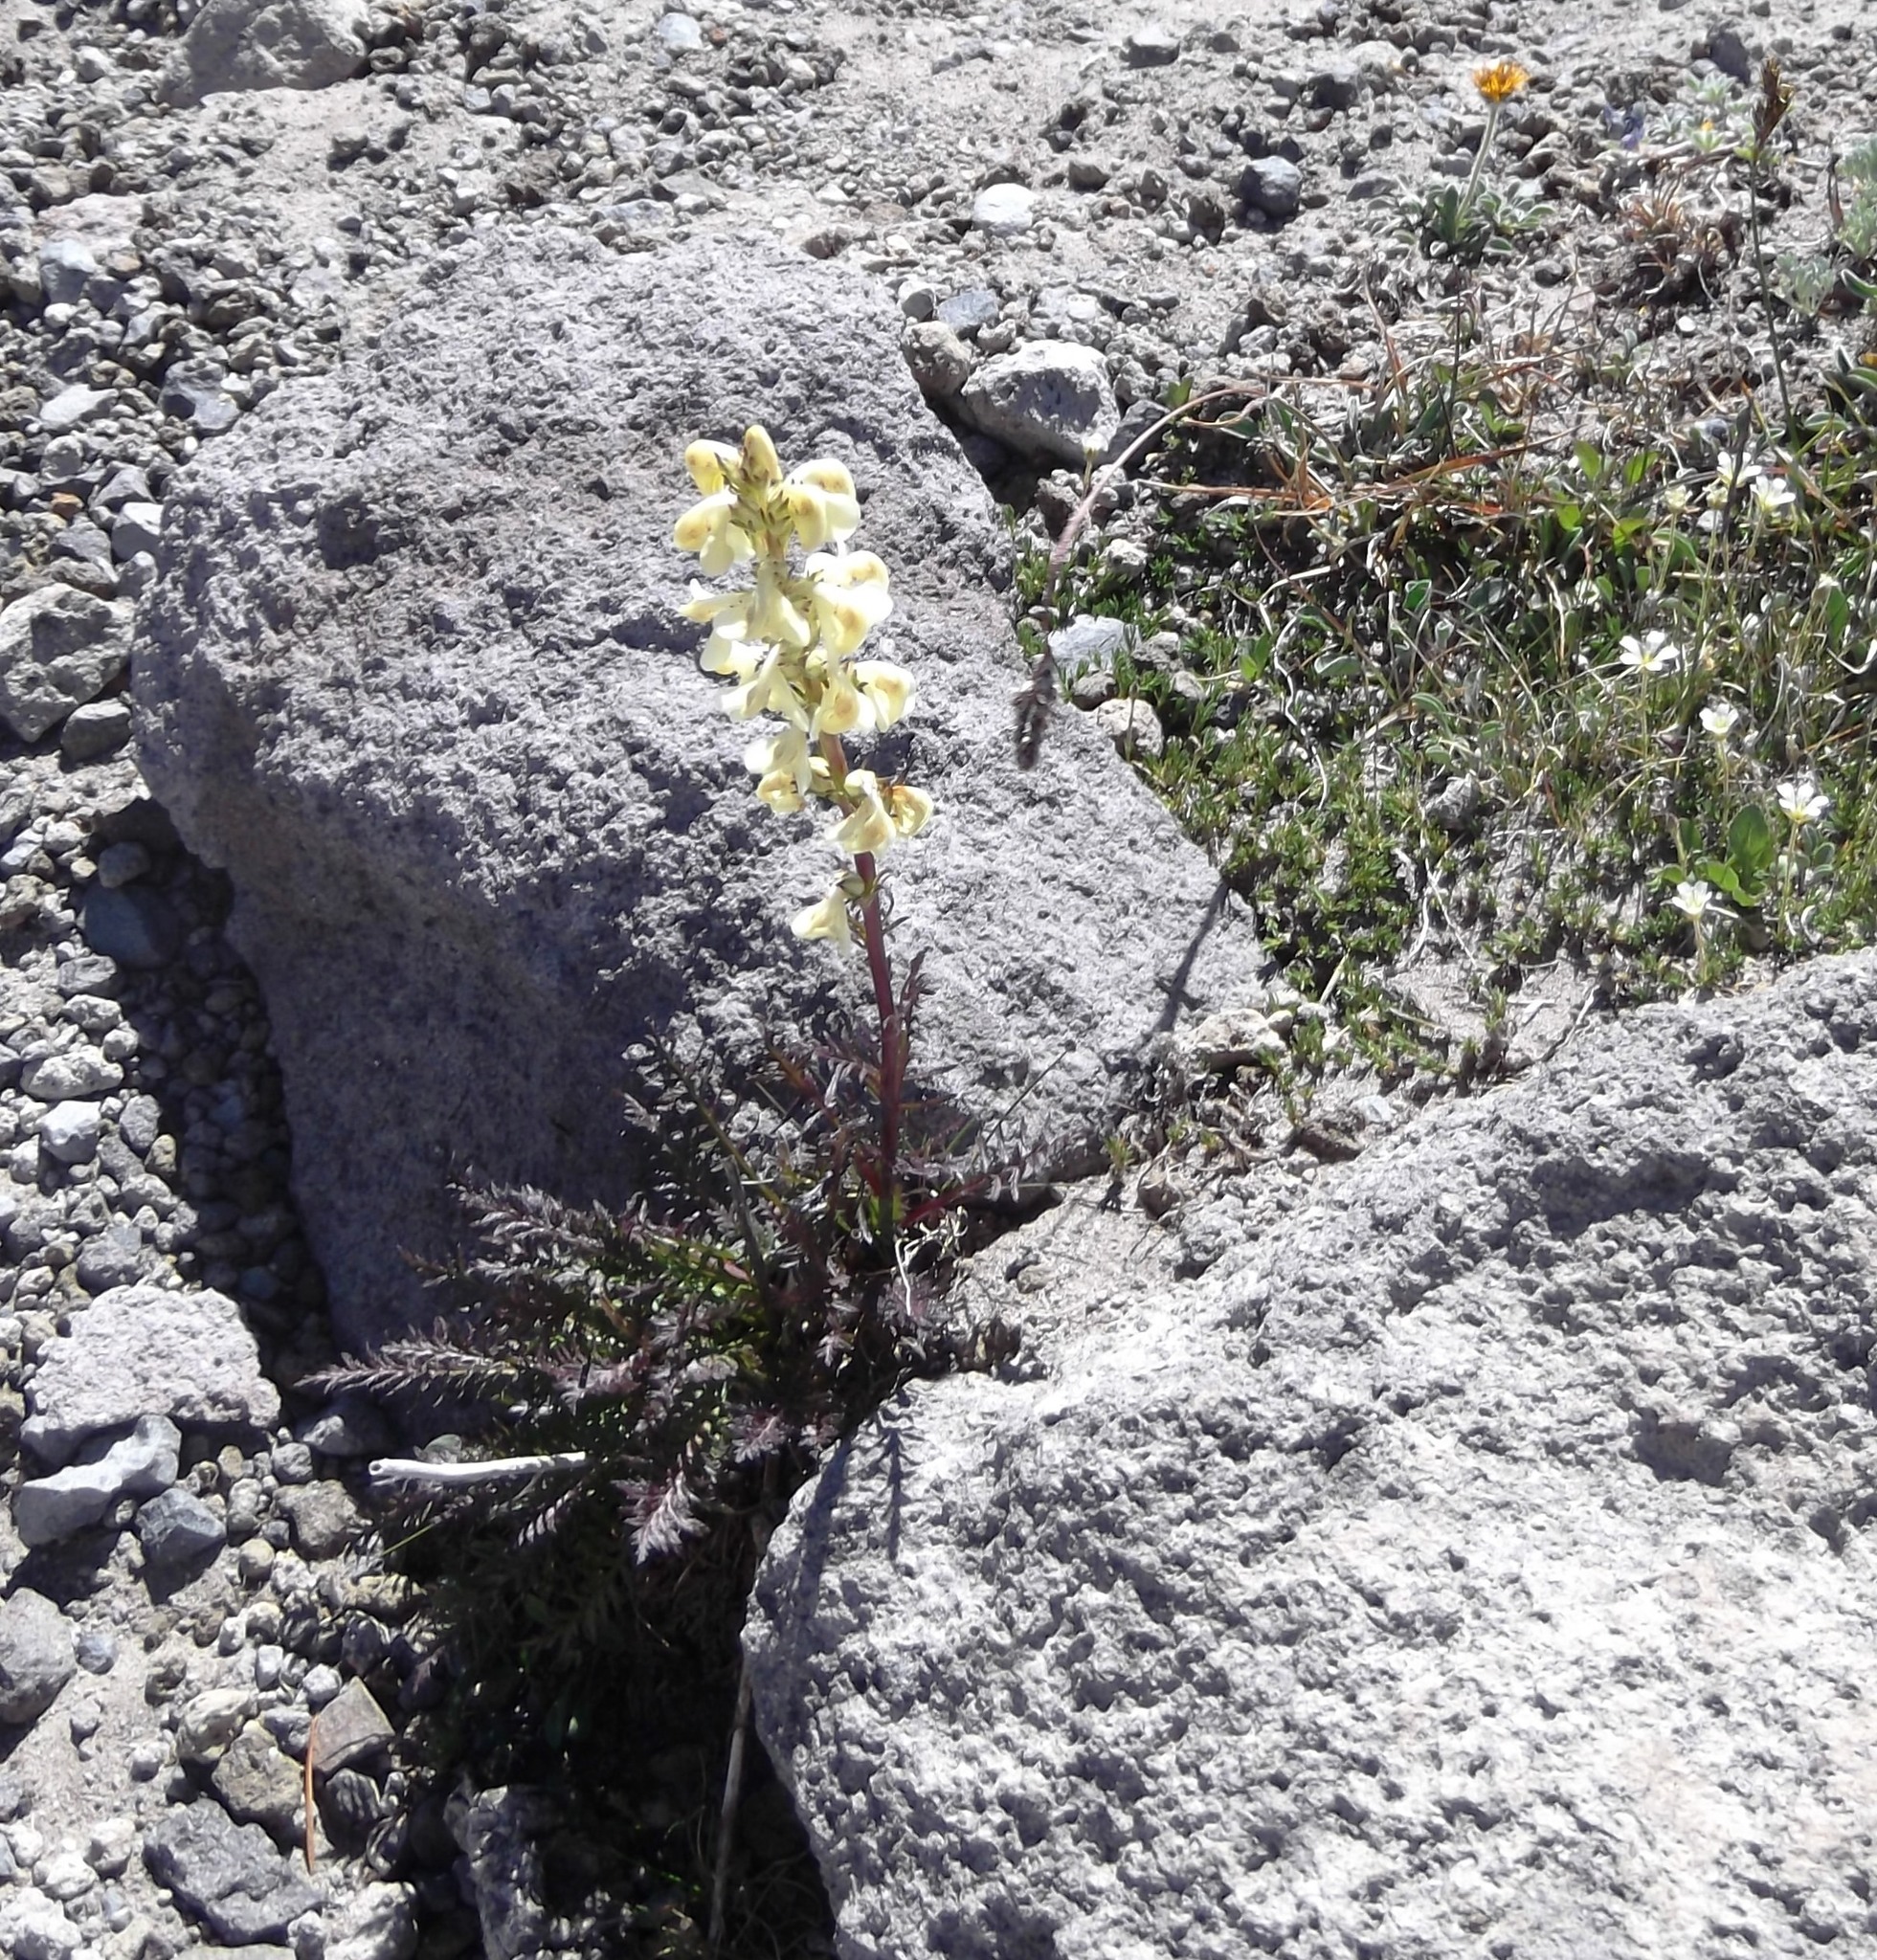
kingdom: Plantae
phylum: Tracheophyta
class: Magnoliopsida
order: Lamiales
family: Orobanchaceae
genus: Pedicularis
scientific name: Pedicularis contorta
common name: Coiled lousewort
